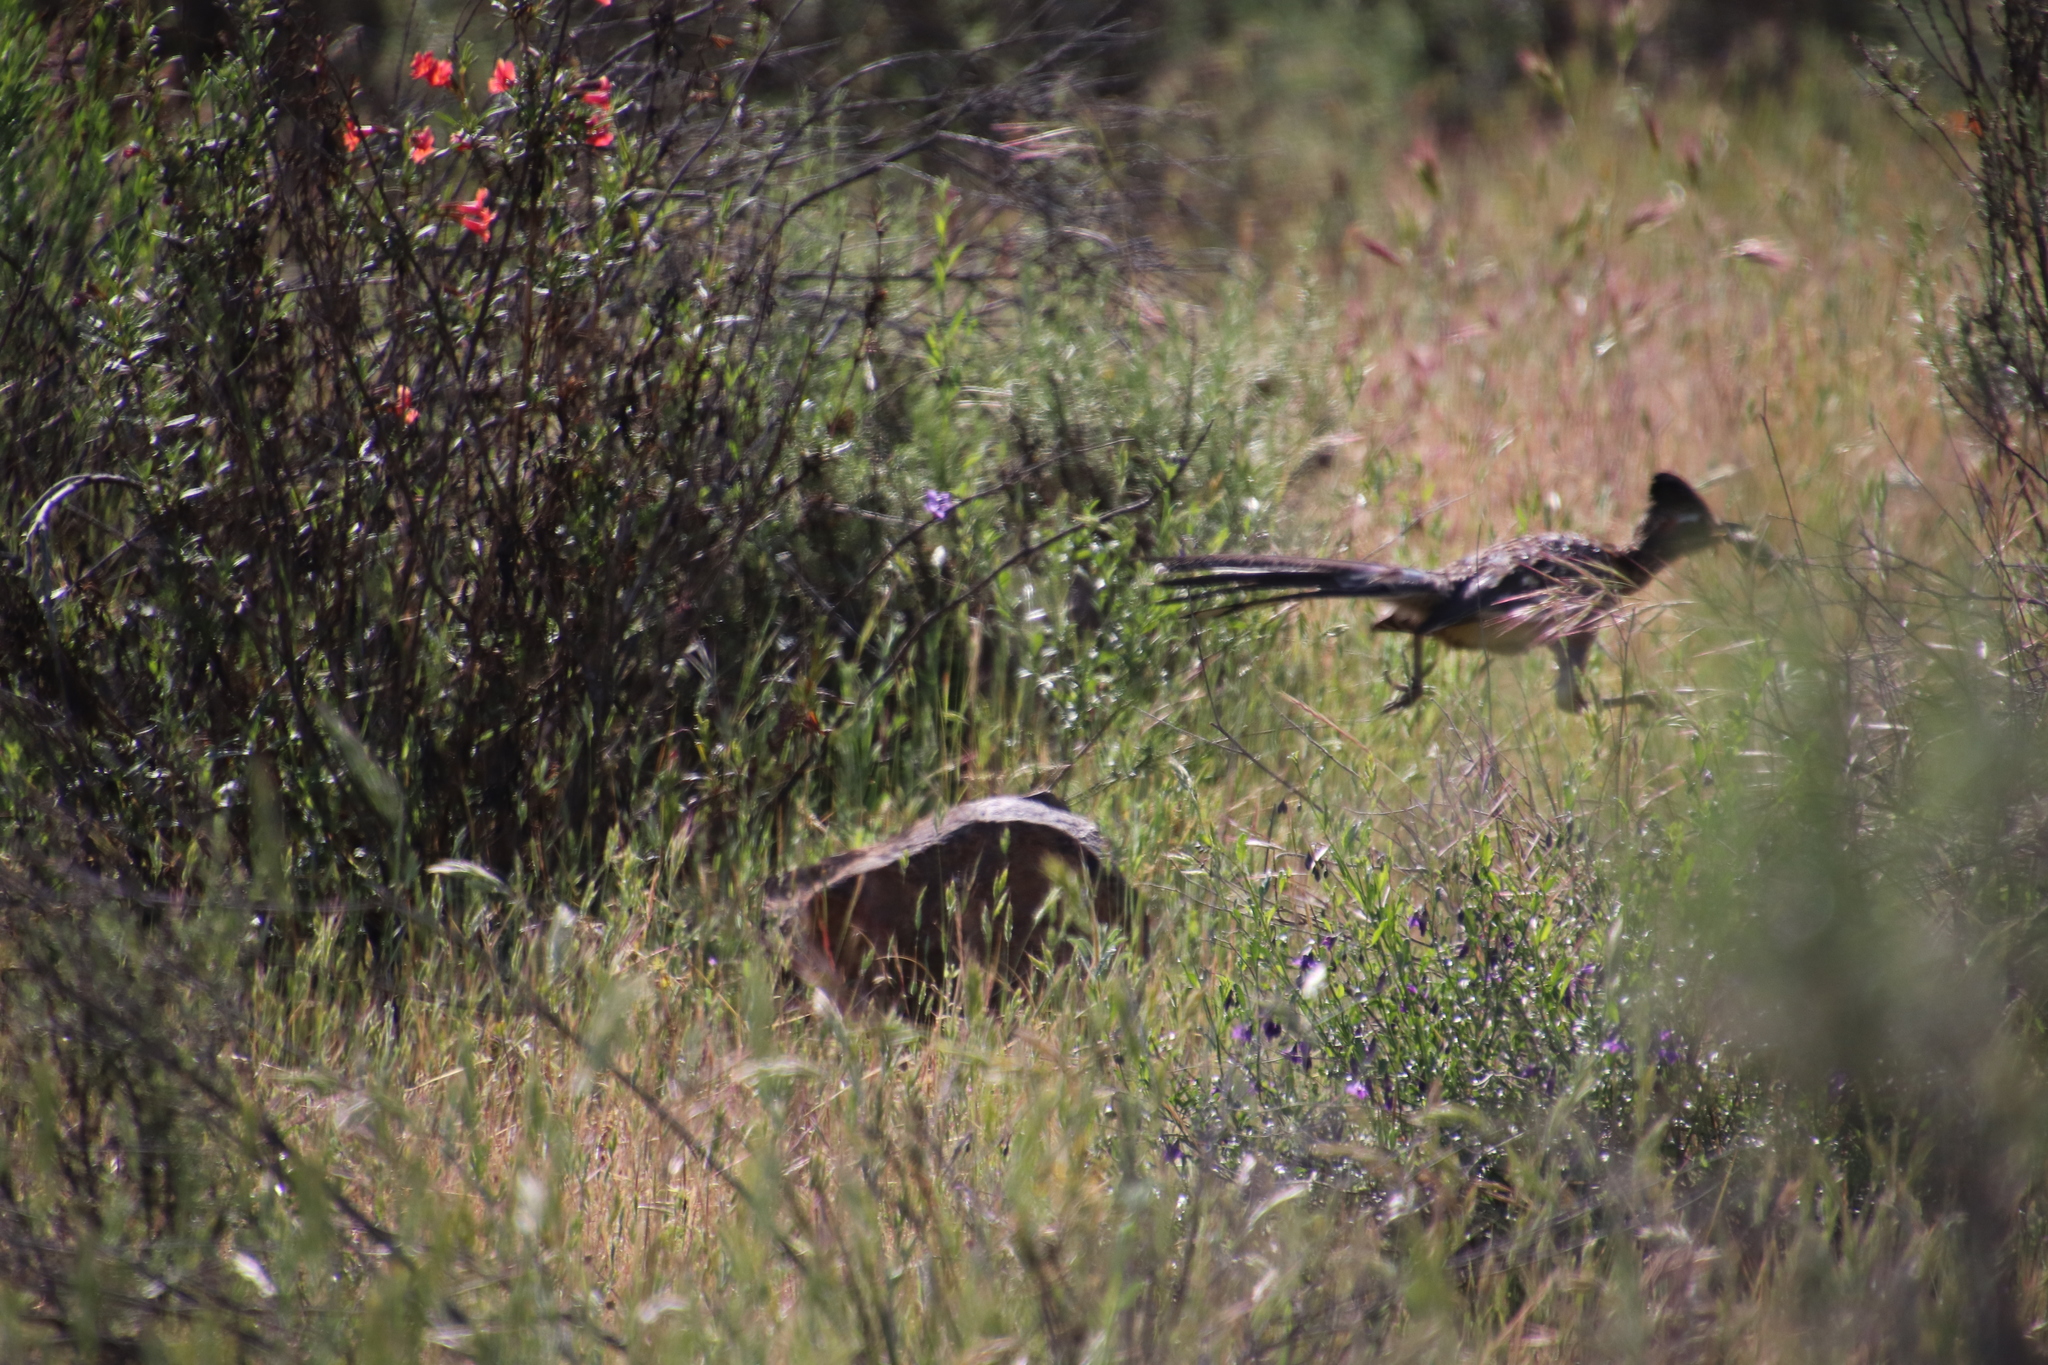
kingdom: Animalia
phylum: Chordata
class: Aves
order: Cuculiformes
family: Cuculidae
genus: Geococcyx
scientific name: Geococcyx californianus
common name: Greater roadrunner
